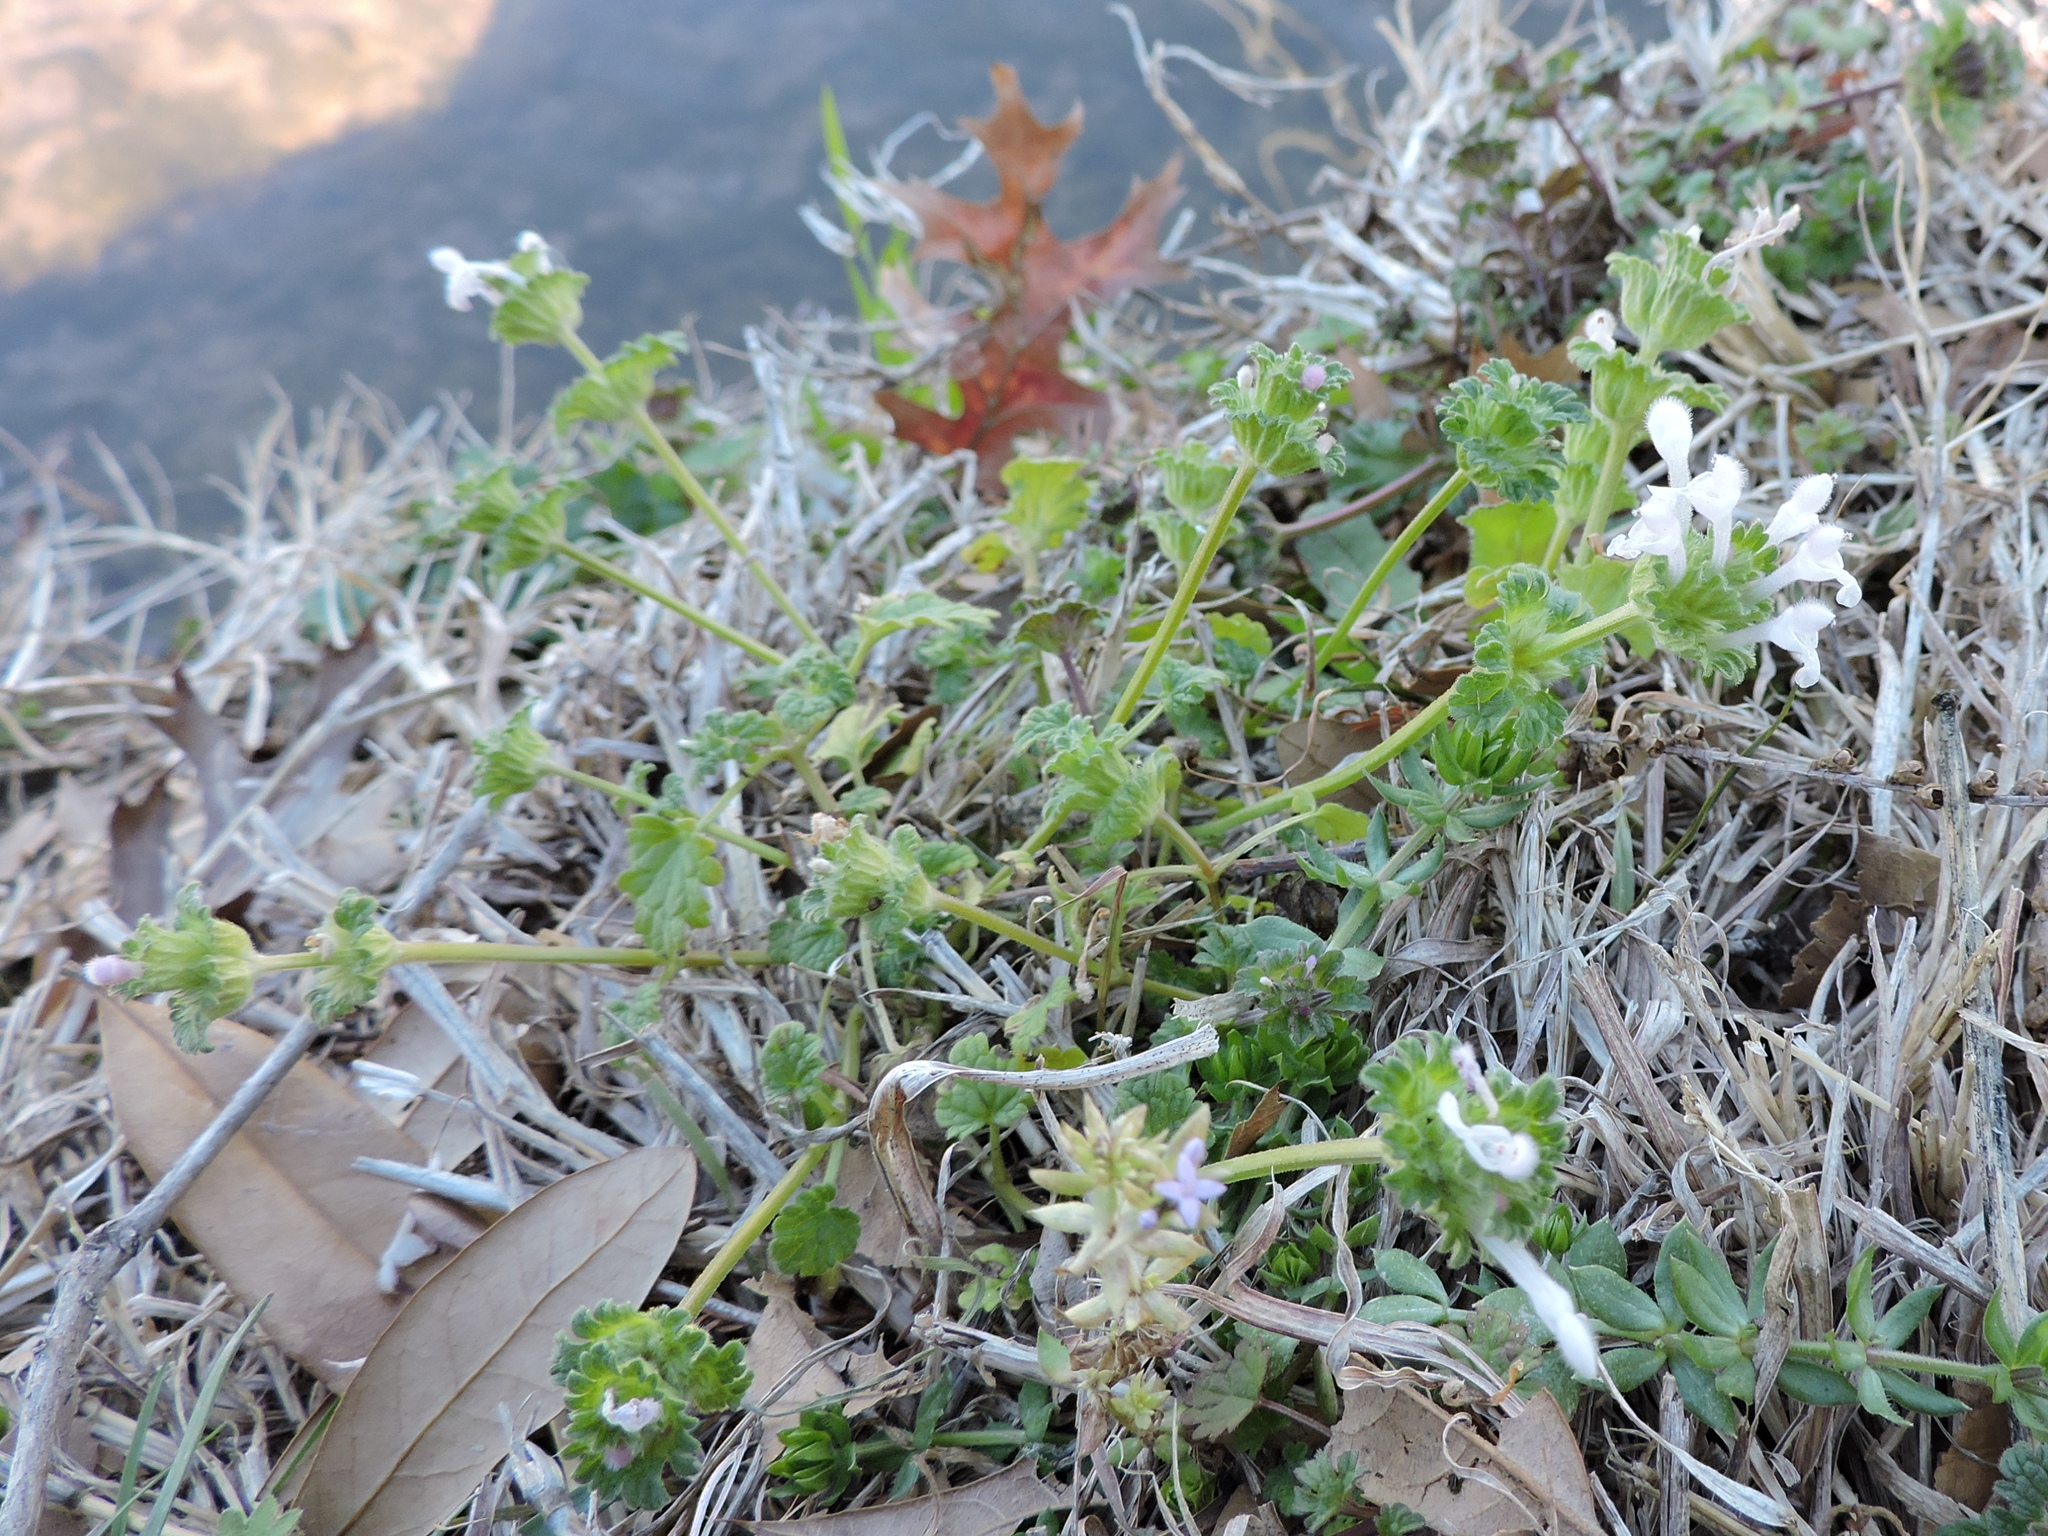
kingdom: Plantae
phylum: Tracheophyta
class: Magnoliopsida
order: Lamiales
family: Lamiaceae
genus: Lamium
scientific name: Lamium amplexicaule
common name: Henbit dead-nettle
